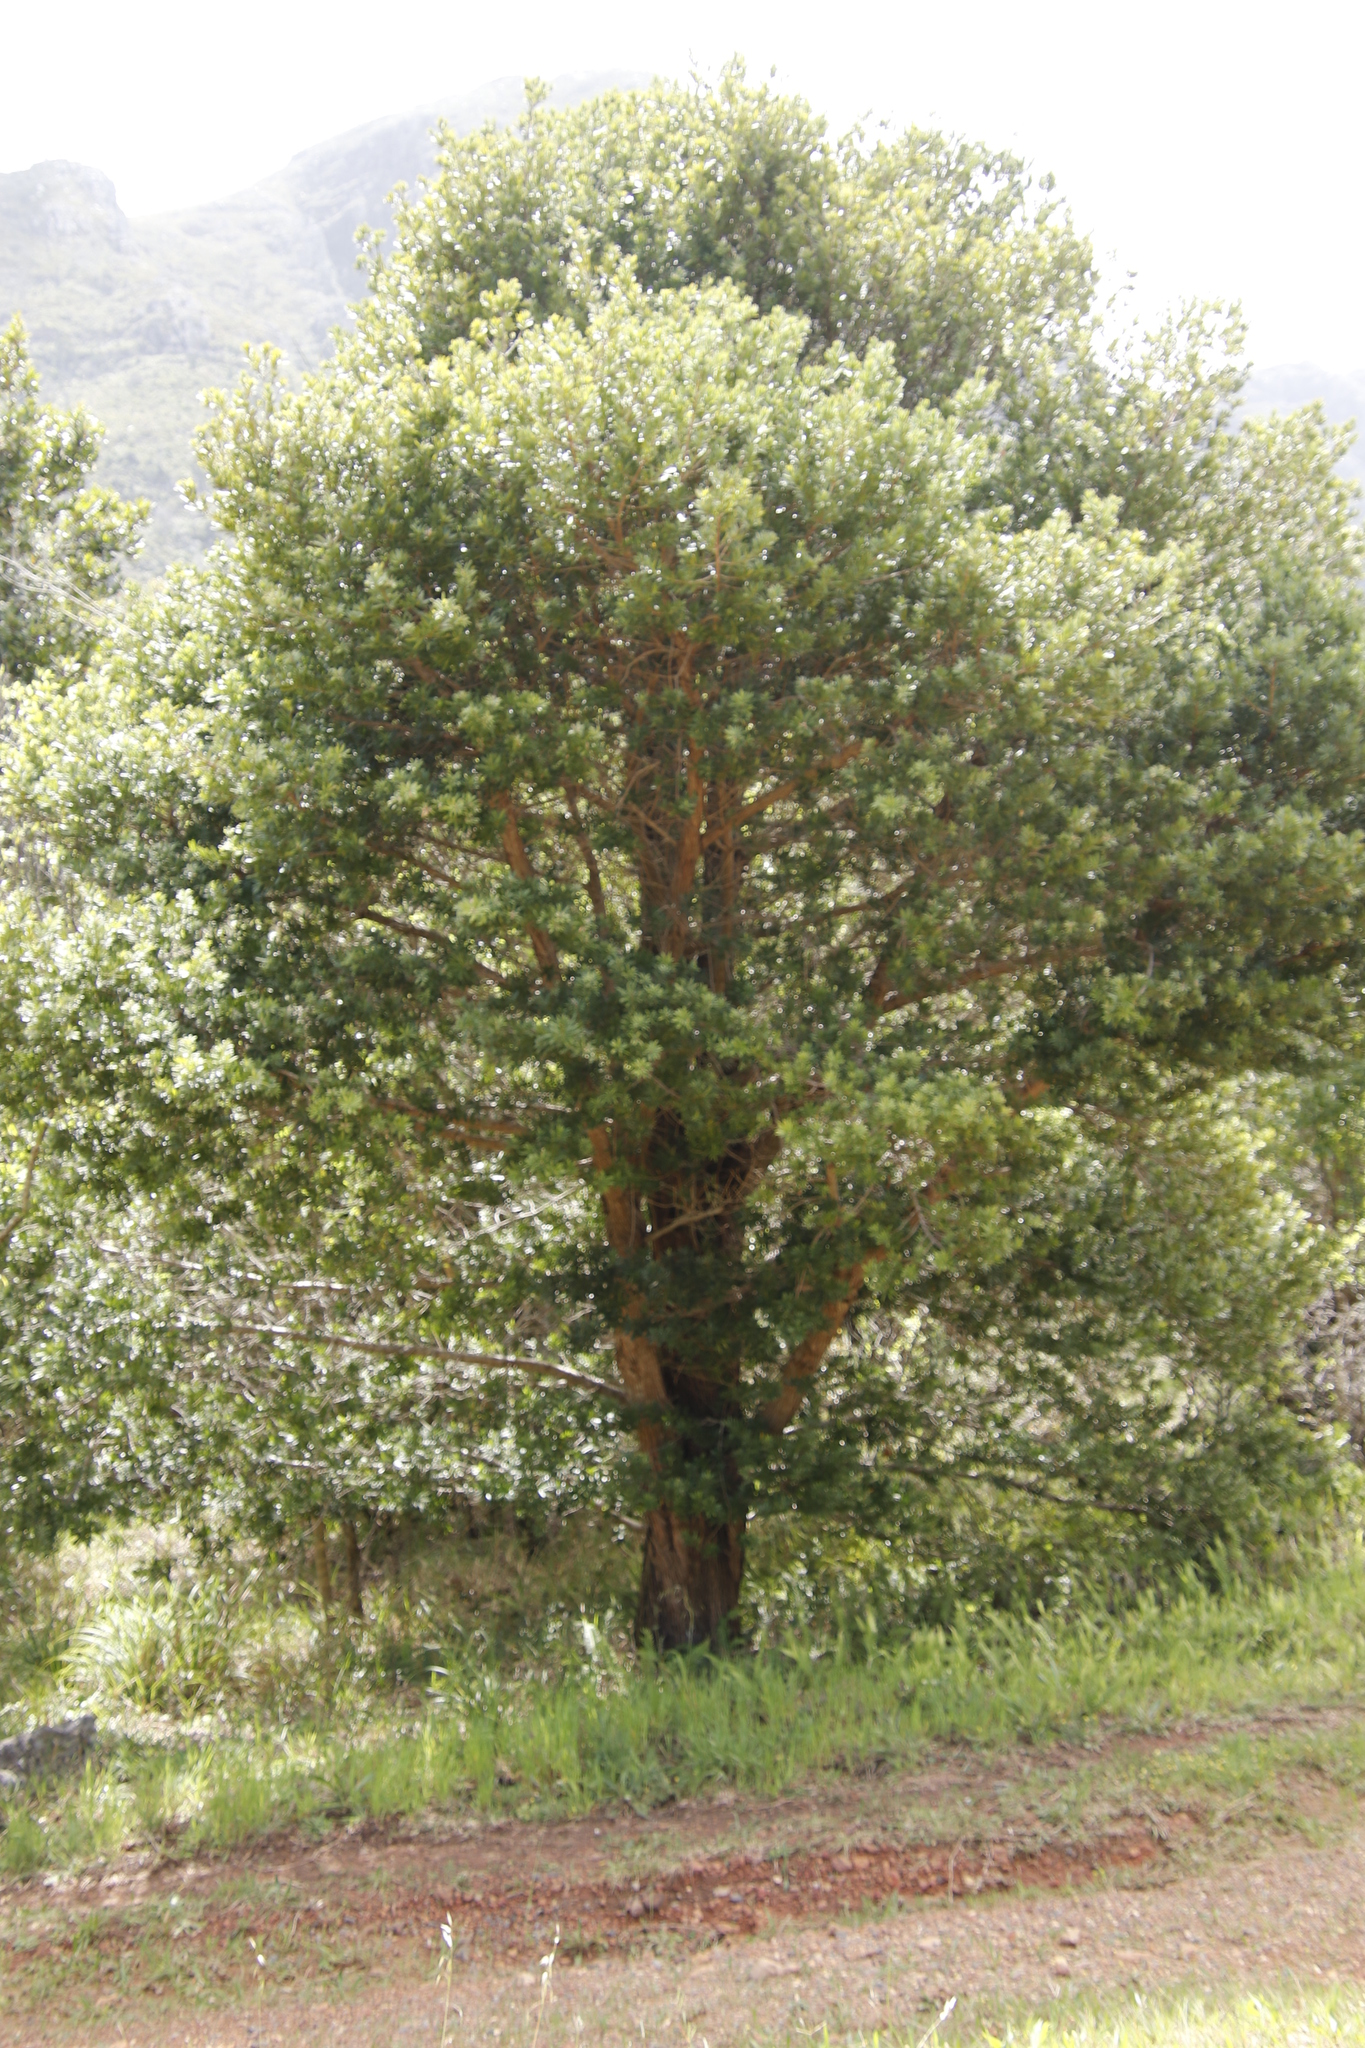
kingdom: Plantae
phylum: Tracheophyta
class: Pinopsida
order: Pinales
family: Podocarpaceae
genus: Podocarpus
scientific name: Podocarpus latifolius
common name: True yellowwood
